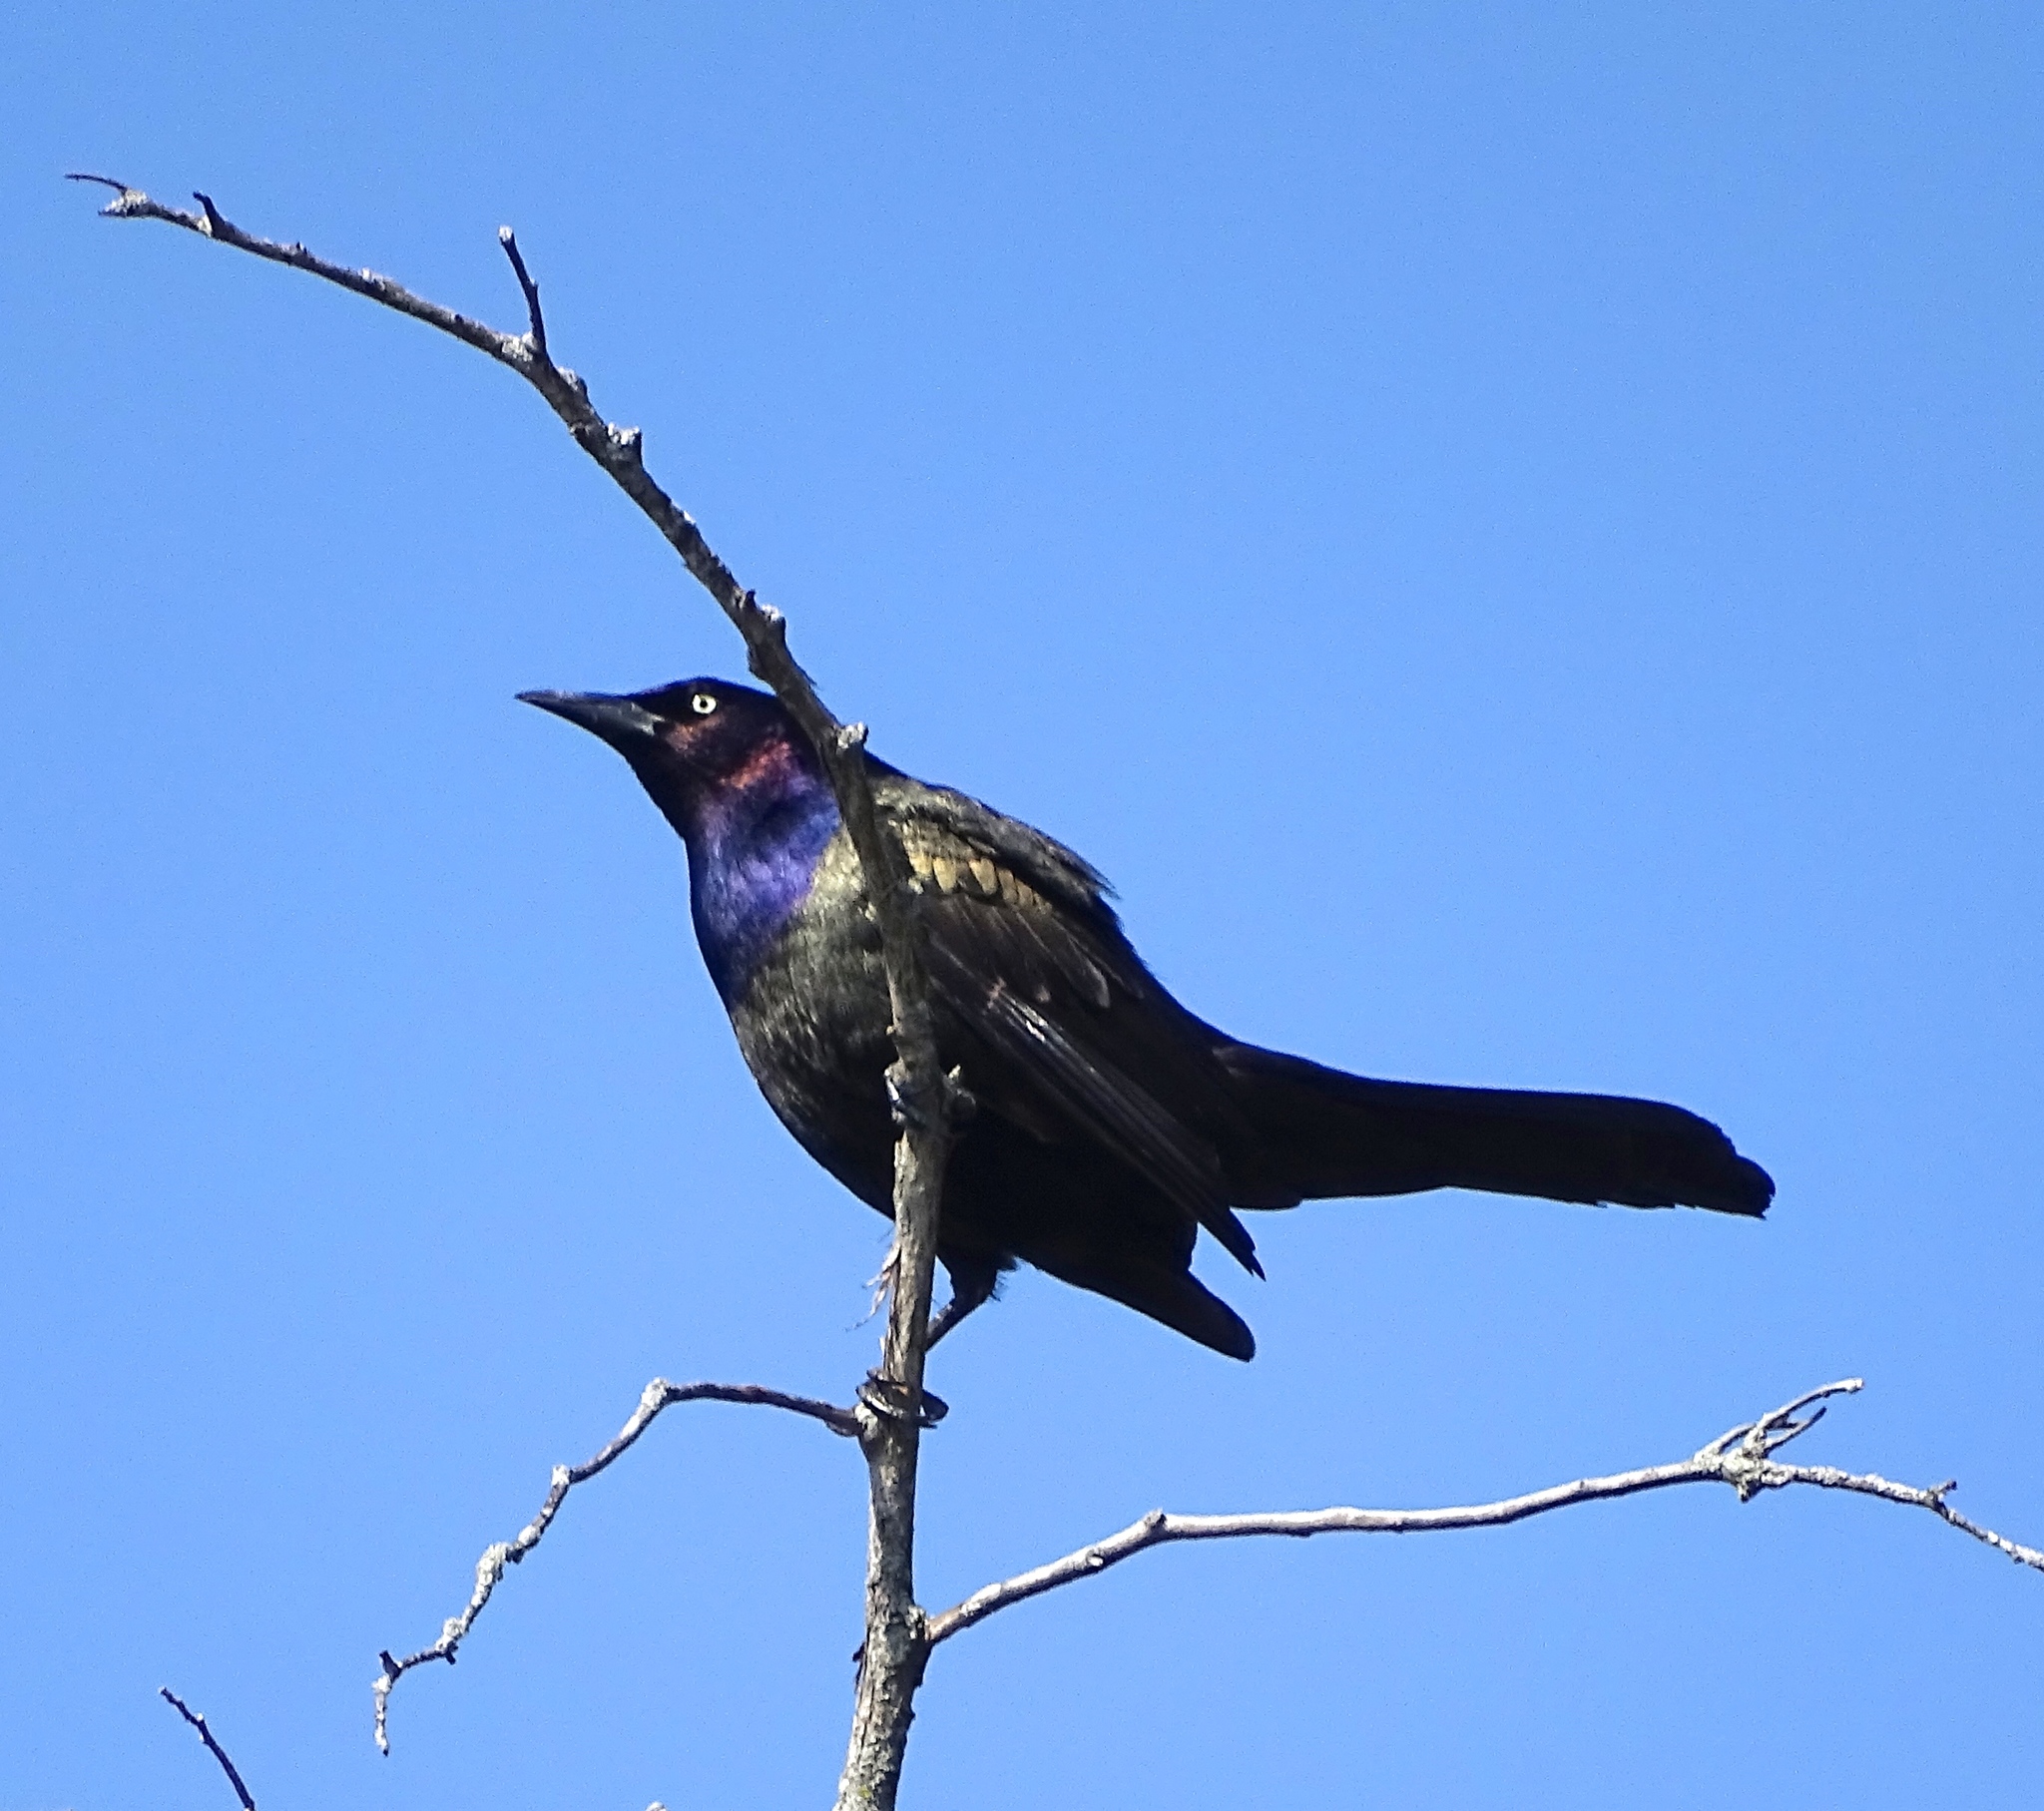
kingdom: Animalia
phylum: Chordata
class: Aves
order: Passeriformes
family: Icteridae
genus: Quiscalus
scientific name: Quiscalus quiscula
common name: Common grackle
